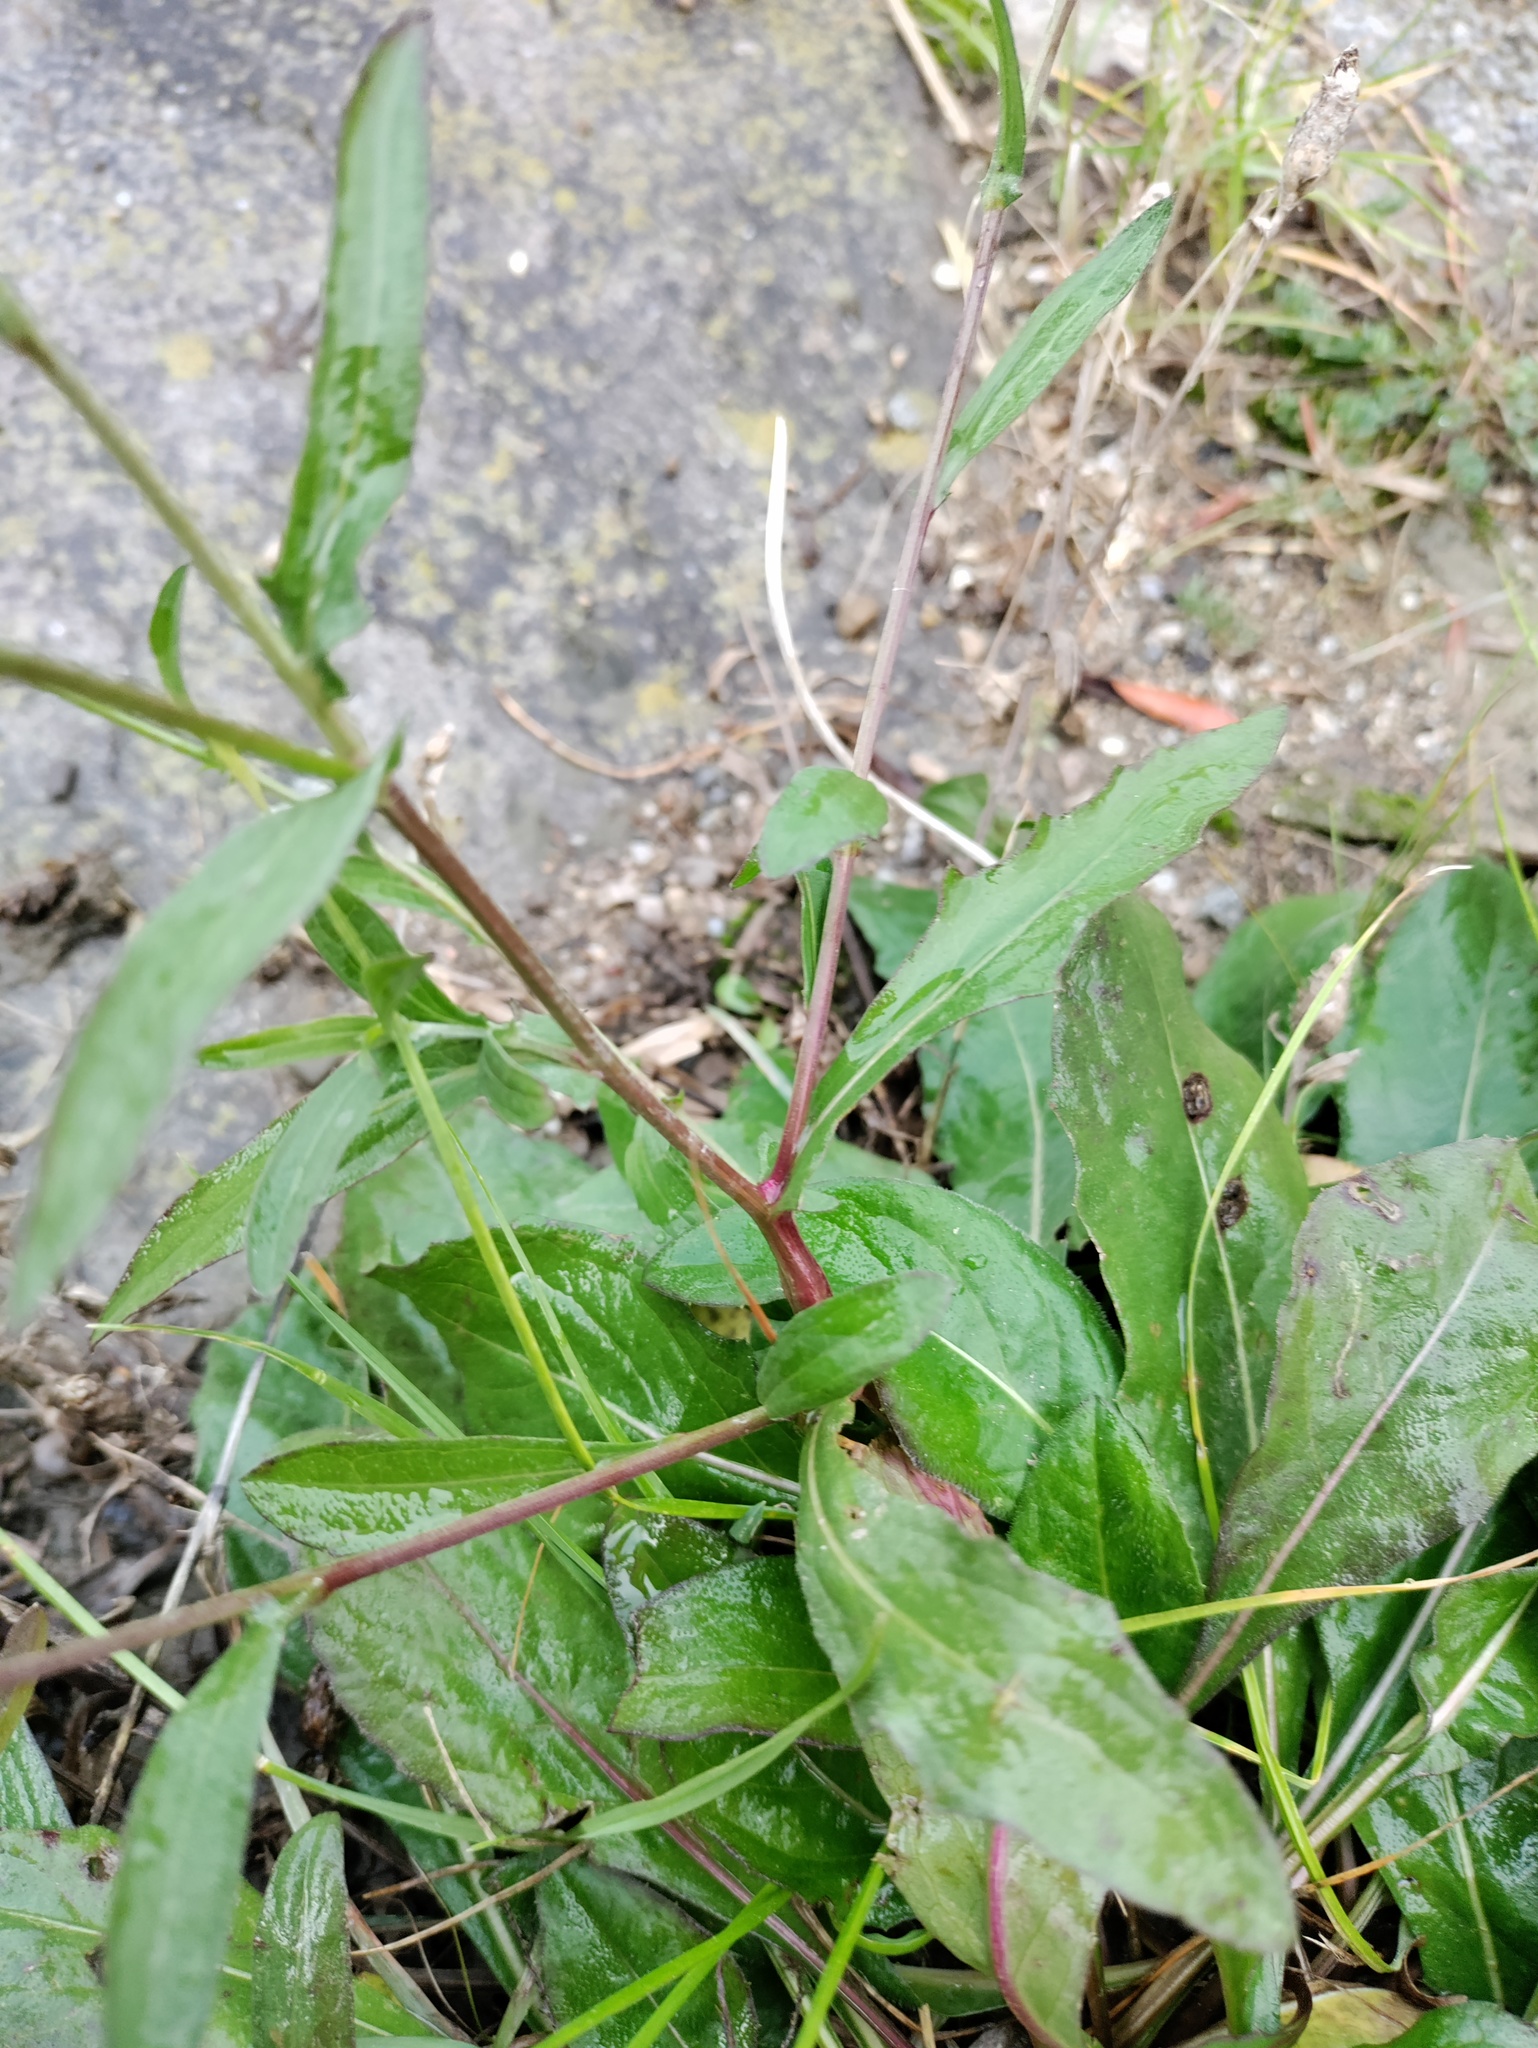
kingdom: Plantae
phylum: Tracheophyta
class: Magnoliopsida
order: Asterales
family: Asteraceae
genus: Centaurea
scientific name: Centaurea jacea
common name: Brown knapweed
